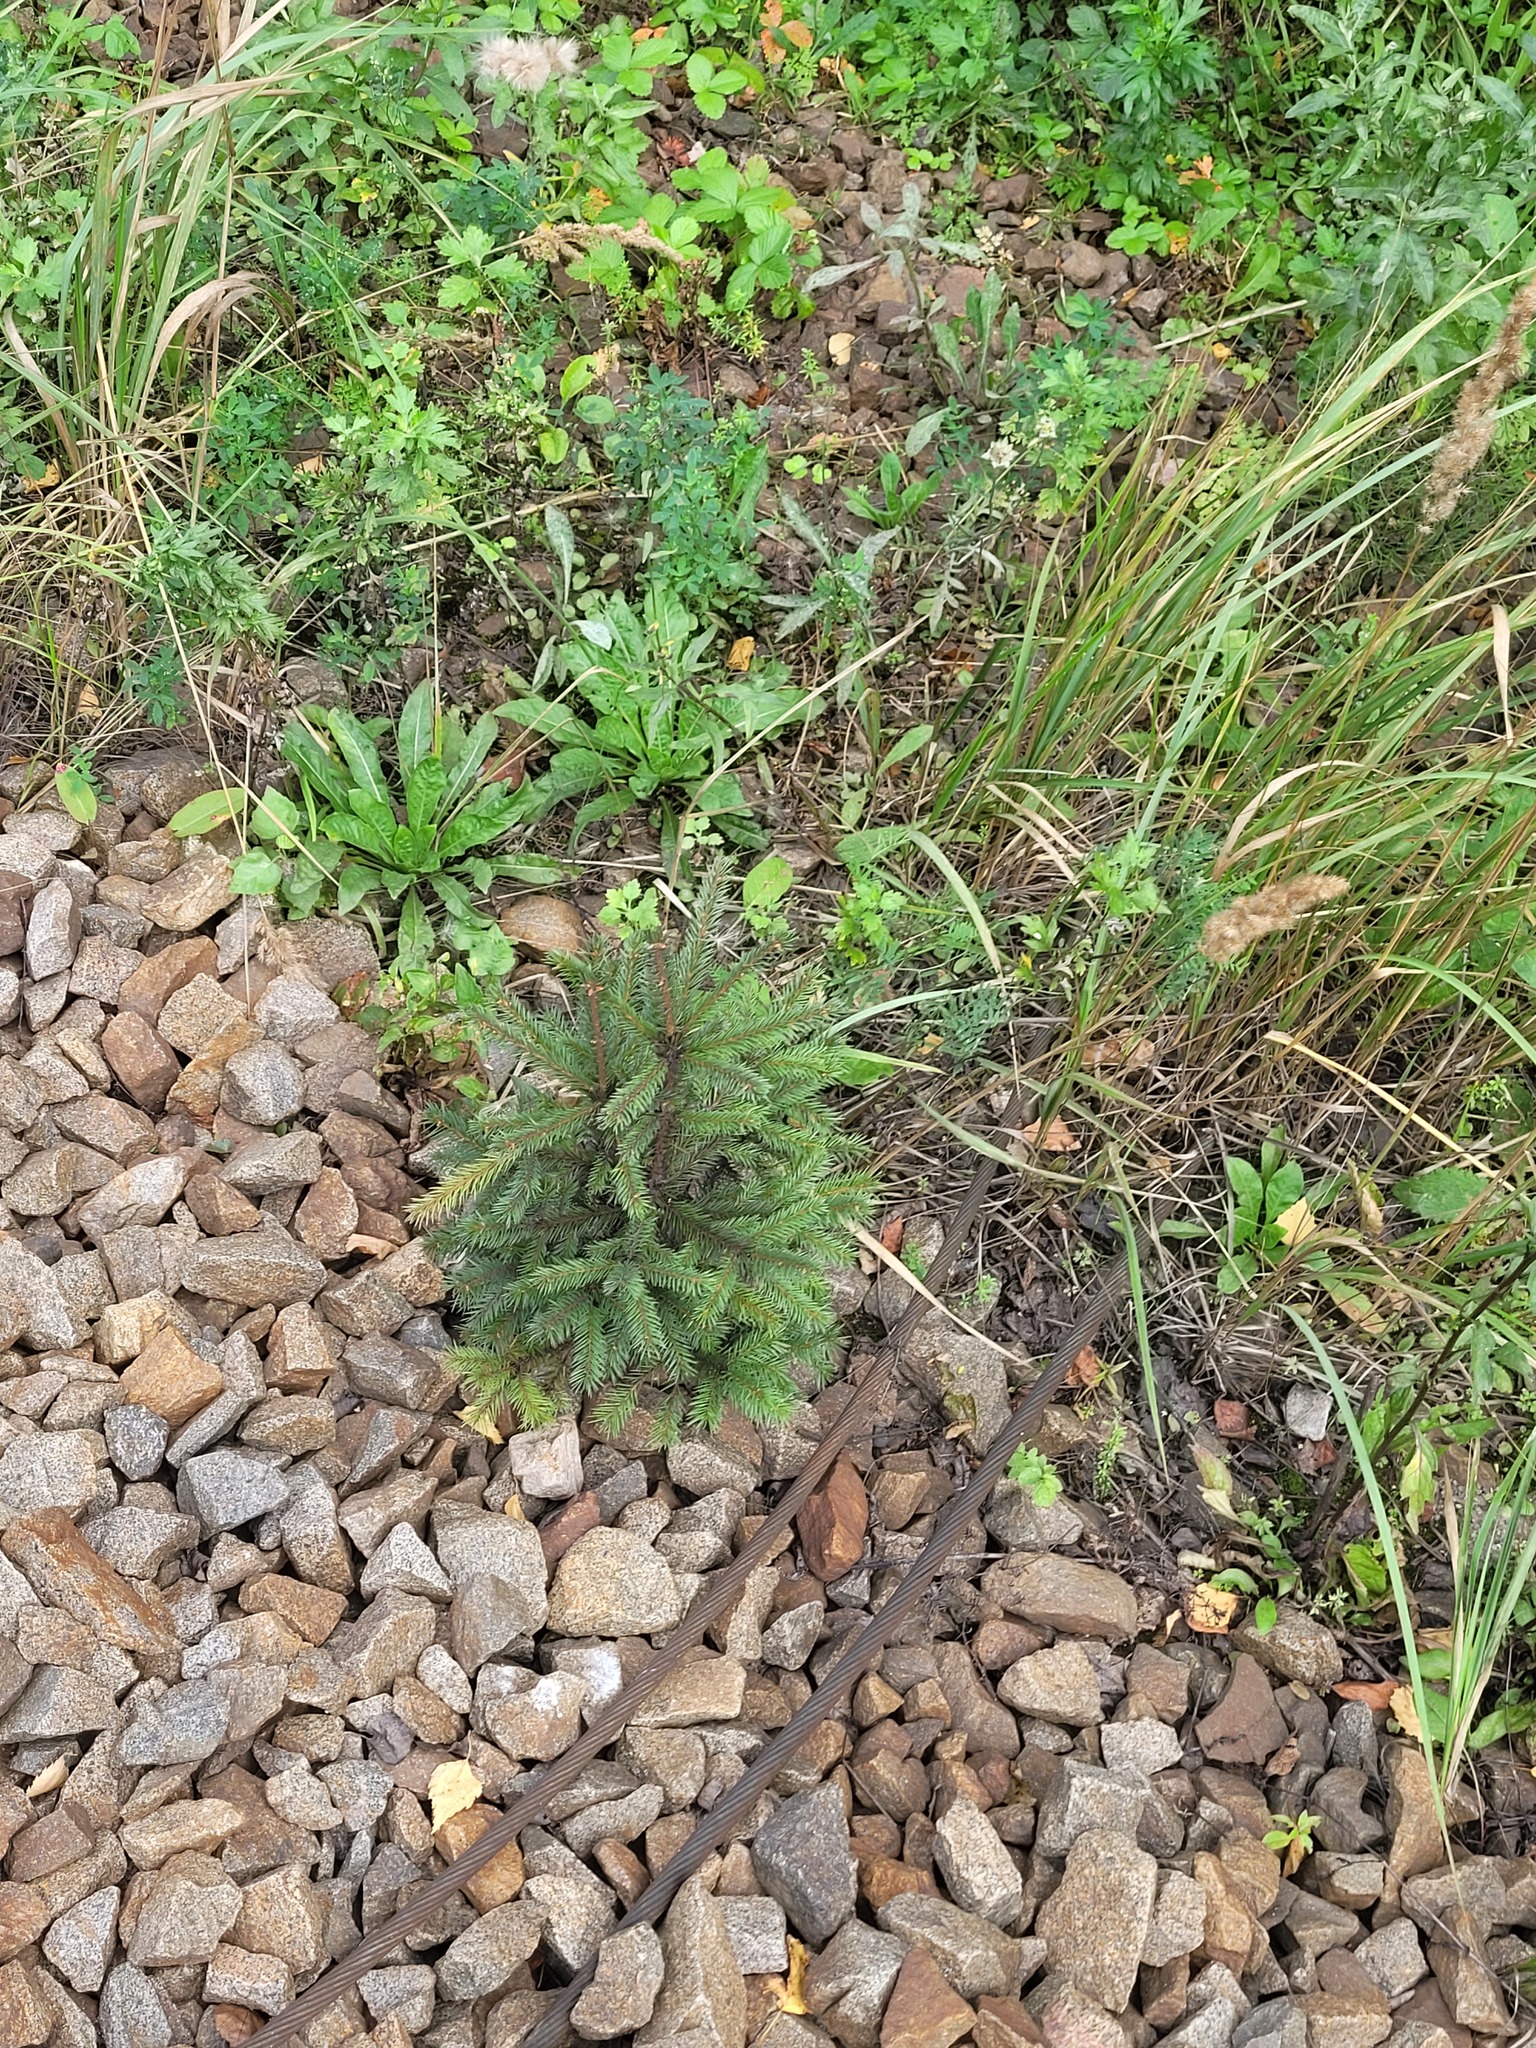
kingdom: Plantae
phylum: Tracheophyta
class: Pinopsida
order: Pinales
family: Pinaceae
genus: Picea
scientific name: Picea abies
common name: Norway spruce
